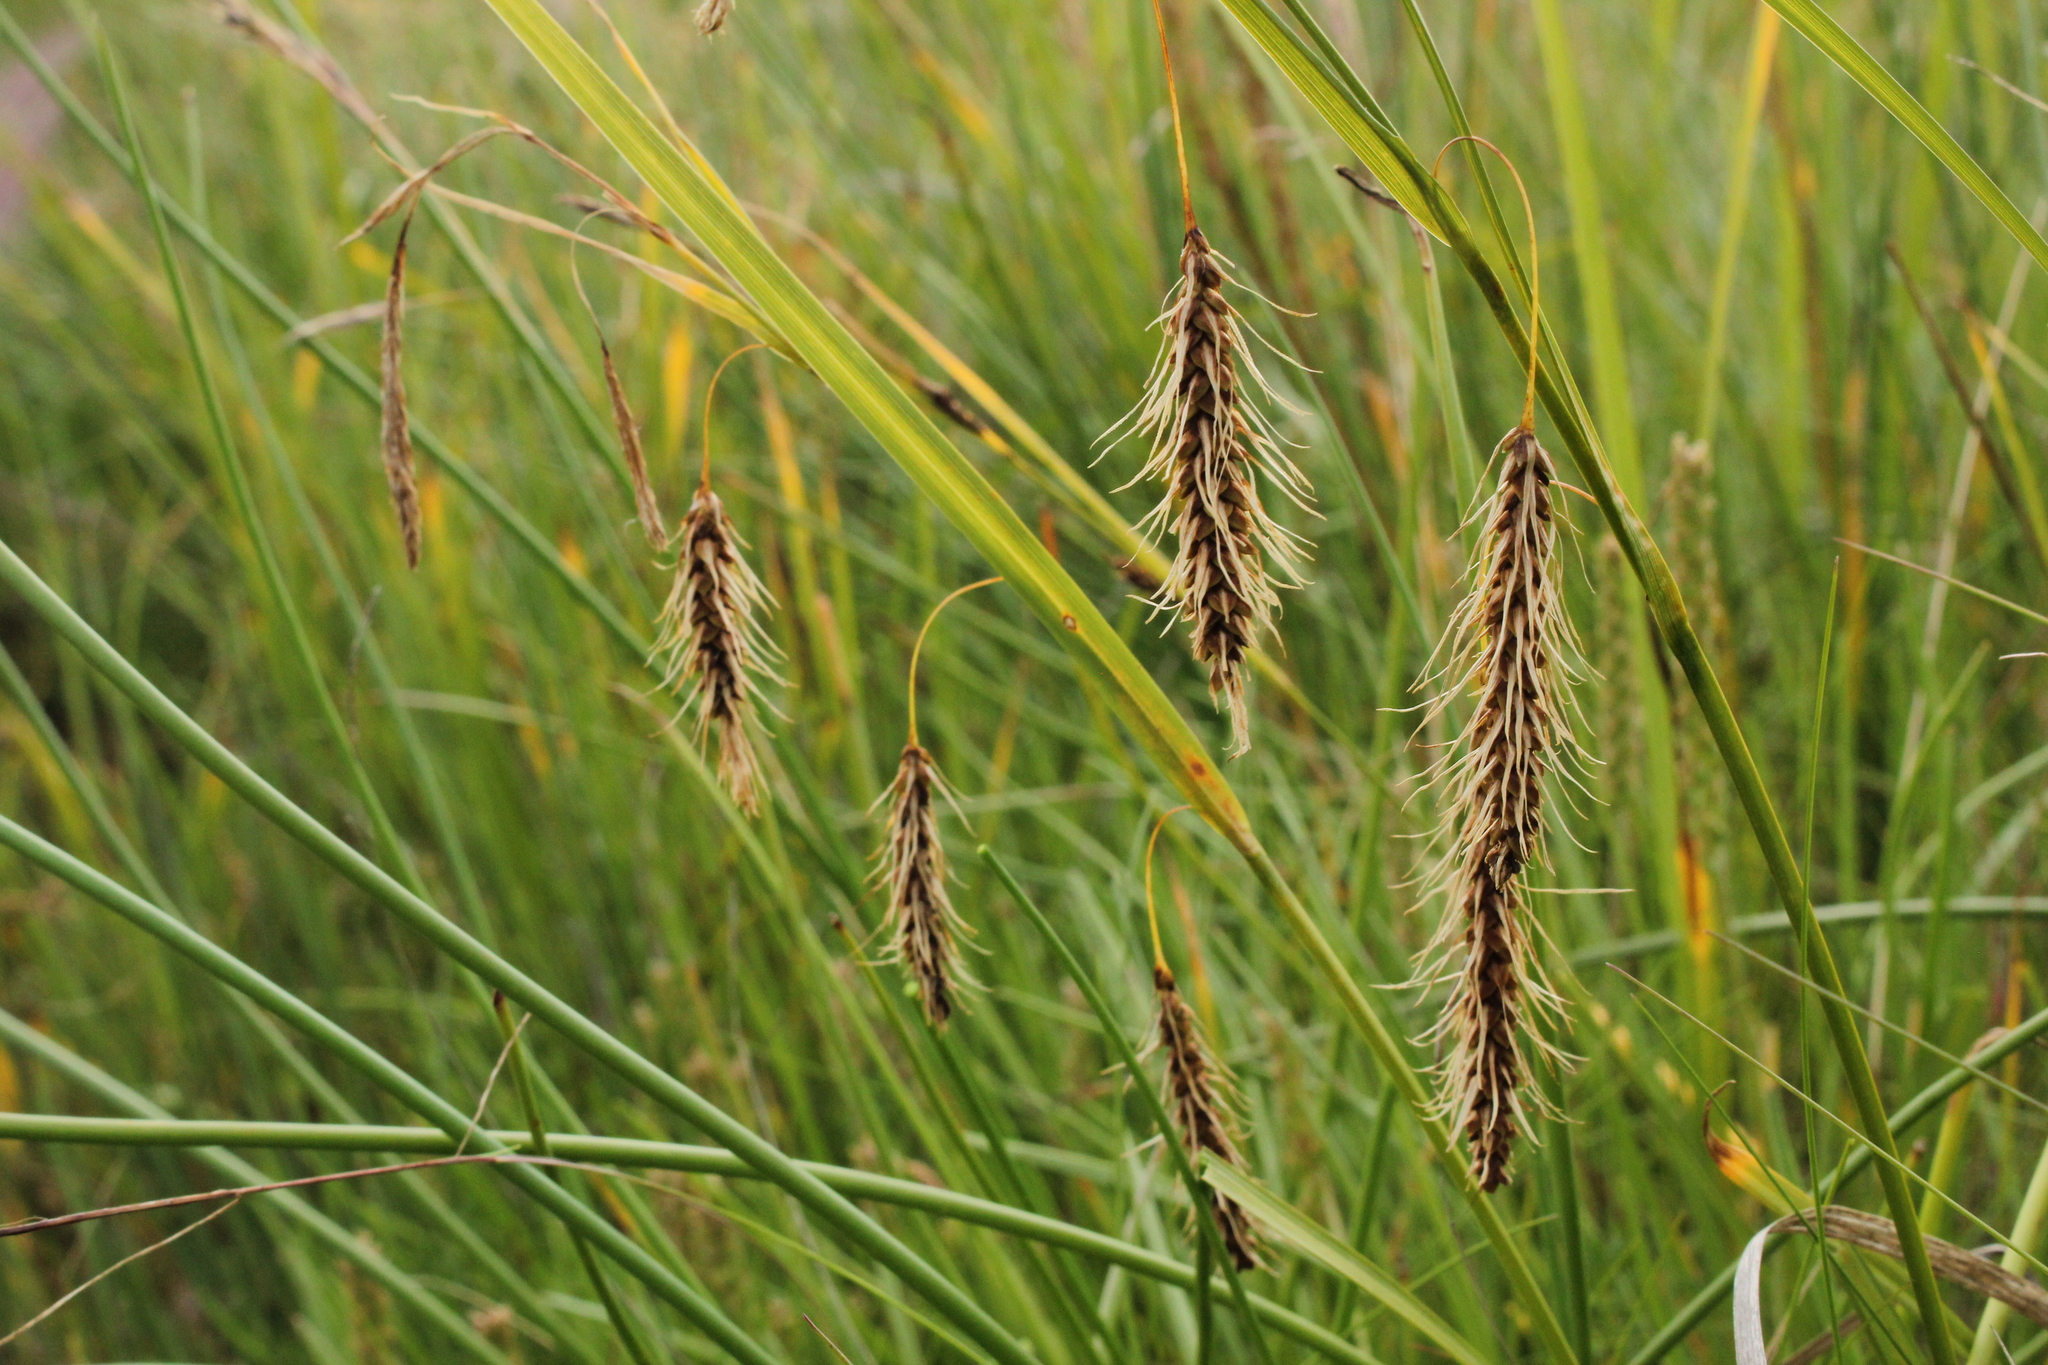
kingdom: Plantae
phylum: Tracheophyta
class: Liliopsida
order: Poales
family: Cyperaceae
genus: Carex
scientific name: Carex paleacea
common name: Chaffy sedge
